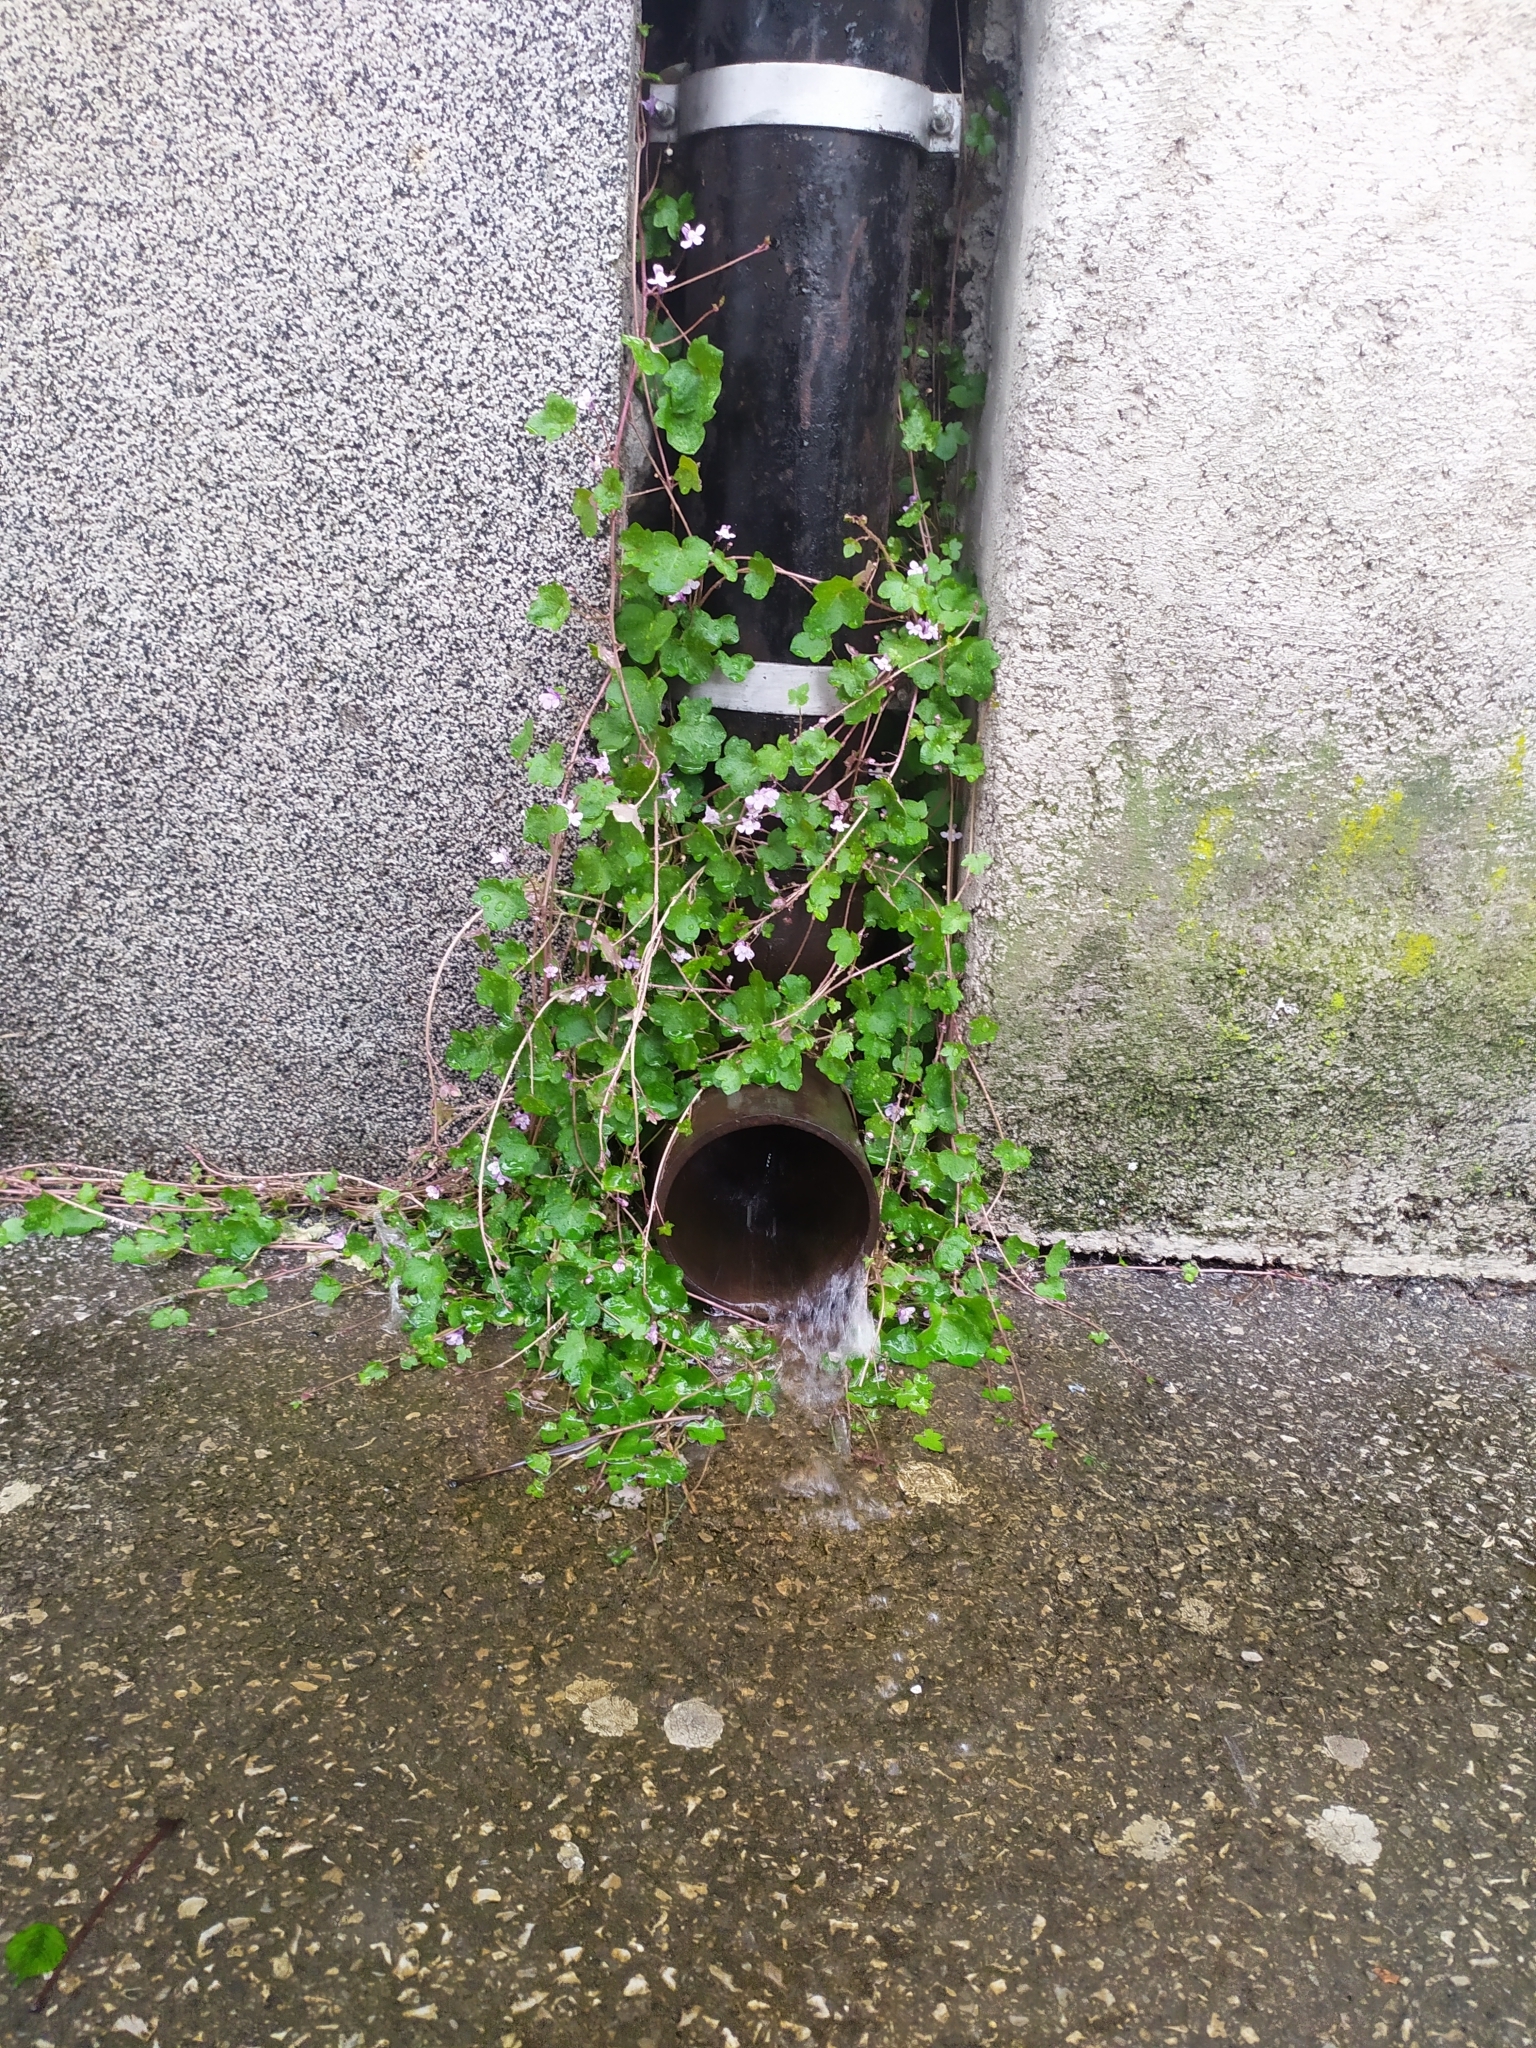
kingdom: Plantae
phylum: Tracheophyta
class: Magnoliopsida
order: Lamiales
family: Plantaginaceae
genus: Cymbalaria
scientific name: Cymbalaria muralis
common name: Ivy-leaved toadflax
